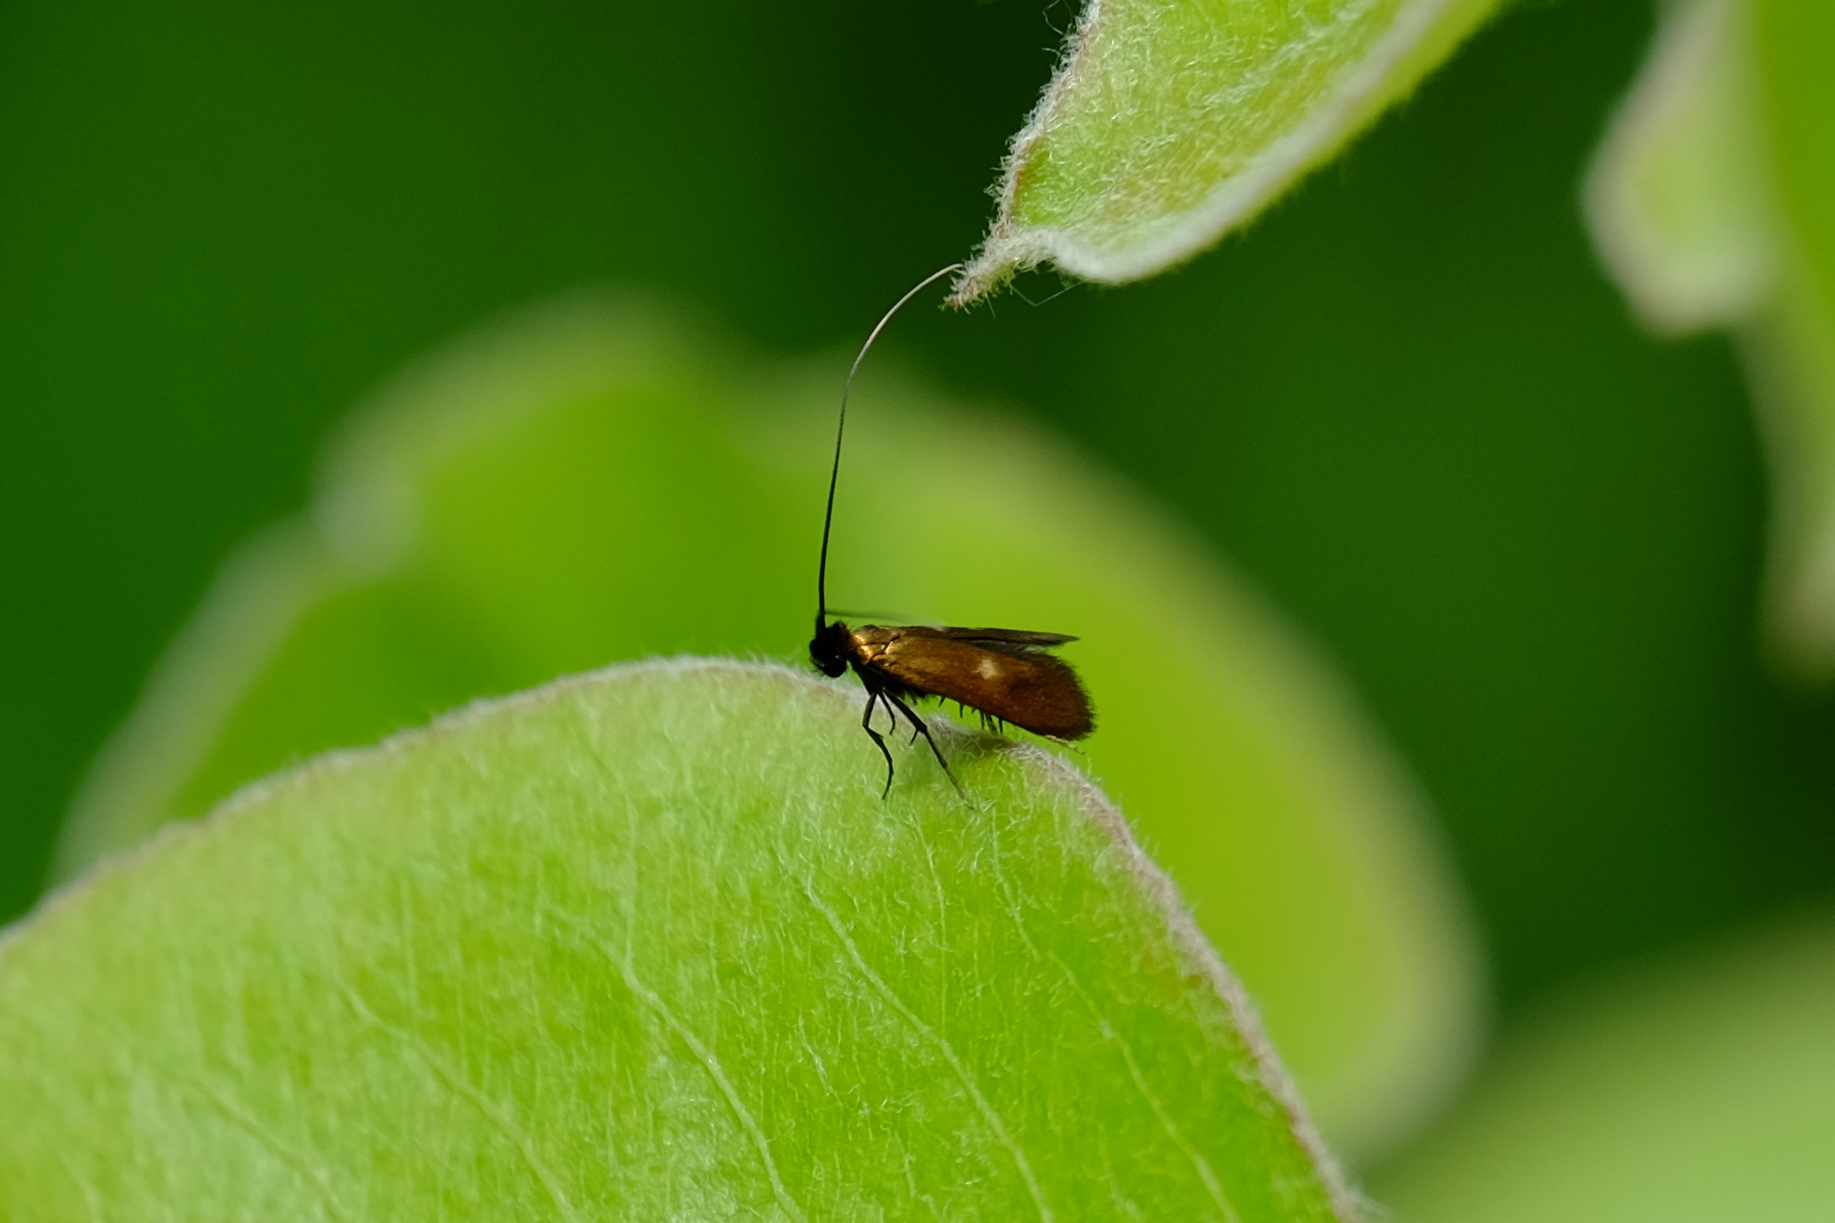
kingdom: Animalia
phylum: Arthropoda
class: Insecta
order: Lepidoptera
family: Adelidae
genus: Cauchas
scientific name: Cauchas fibulella
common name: Little long-horn
